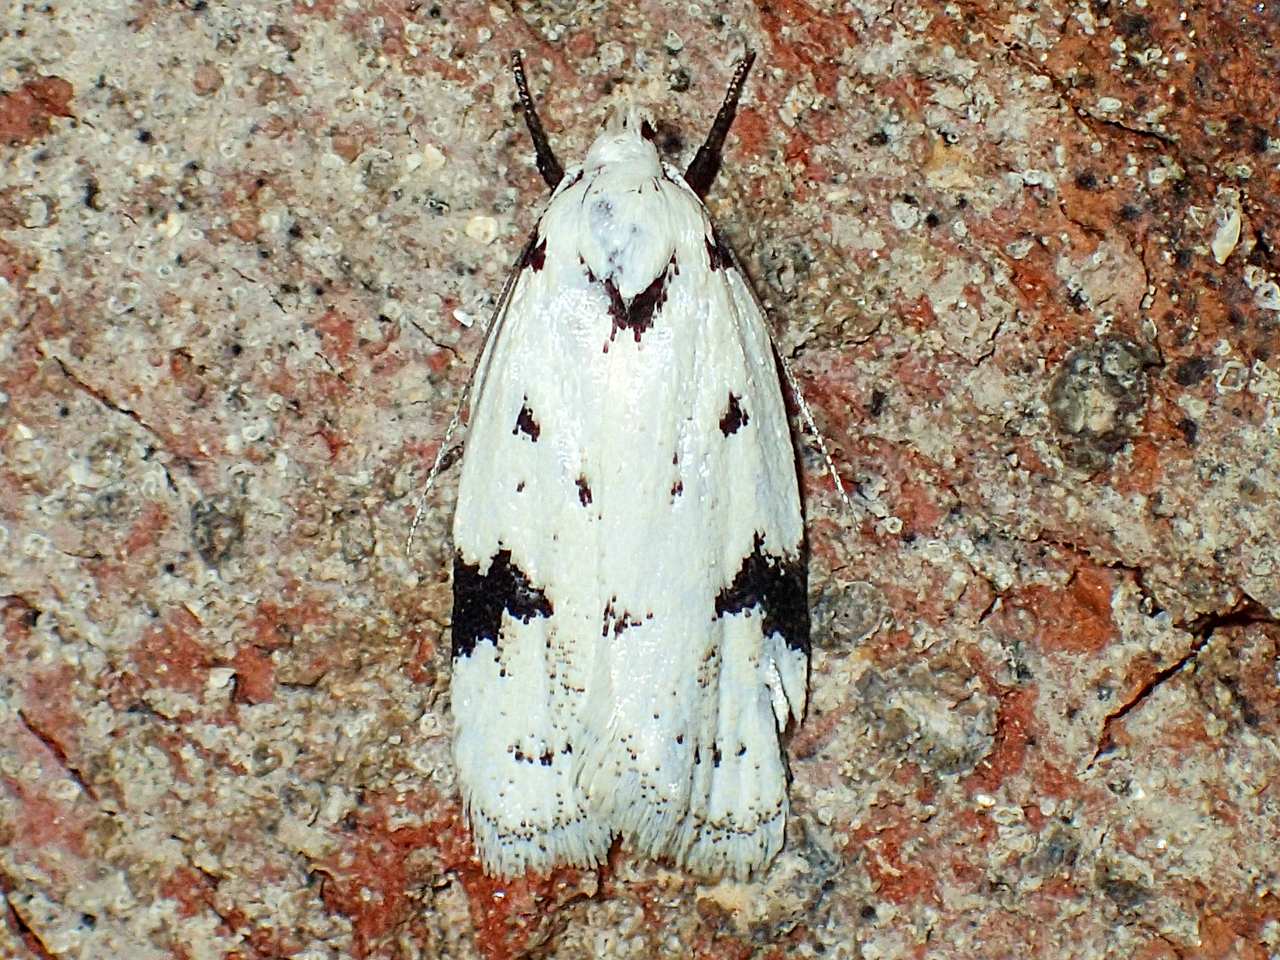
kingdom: Animalia
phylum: Arthropoda
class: Insecta
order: Lepidoptera
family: Oecophoridae
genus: Inga
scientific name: Inga sparsiciliella
